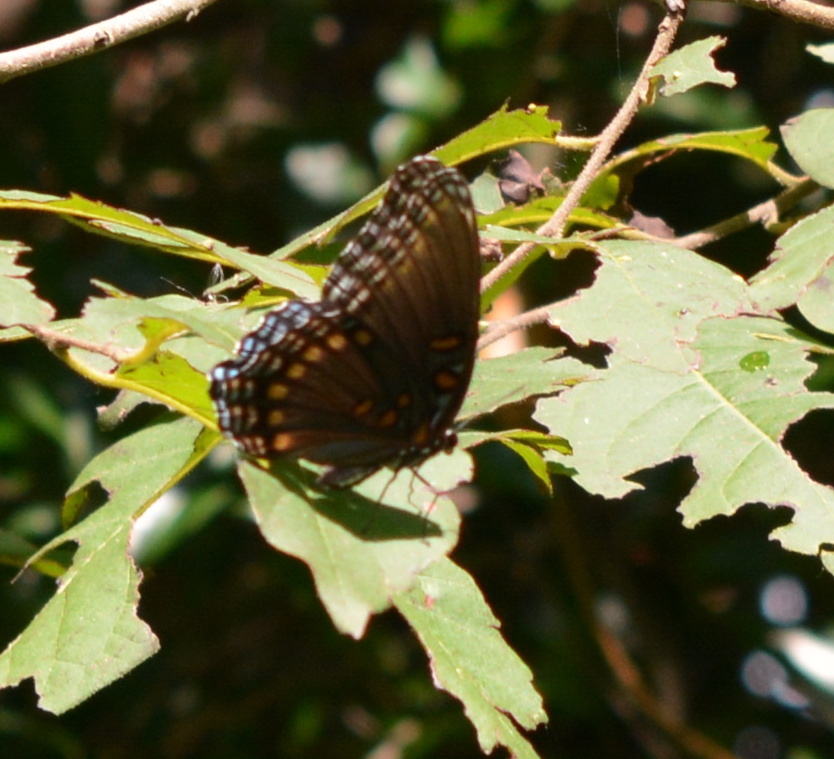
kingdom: Animalia
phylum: Arthropoda
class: Insecta
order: Lepidoptera
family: Nymphalidae
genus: Limenitis
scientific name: Limenitis astyanax
